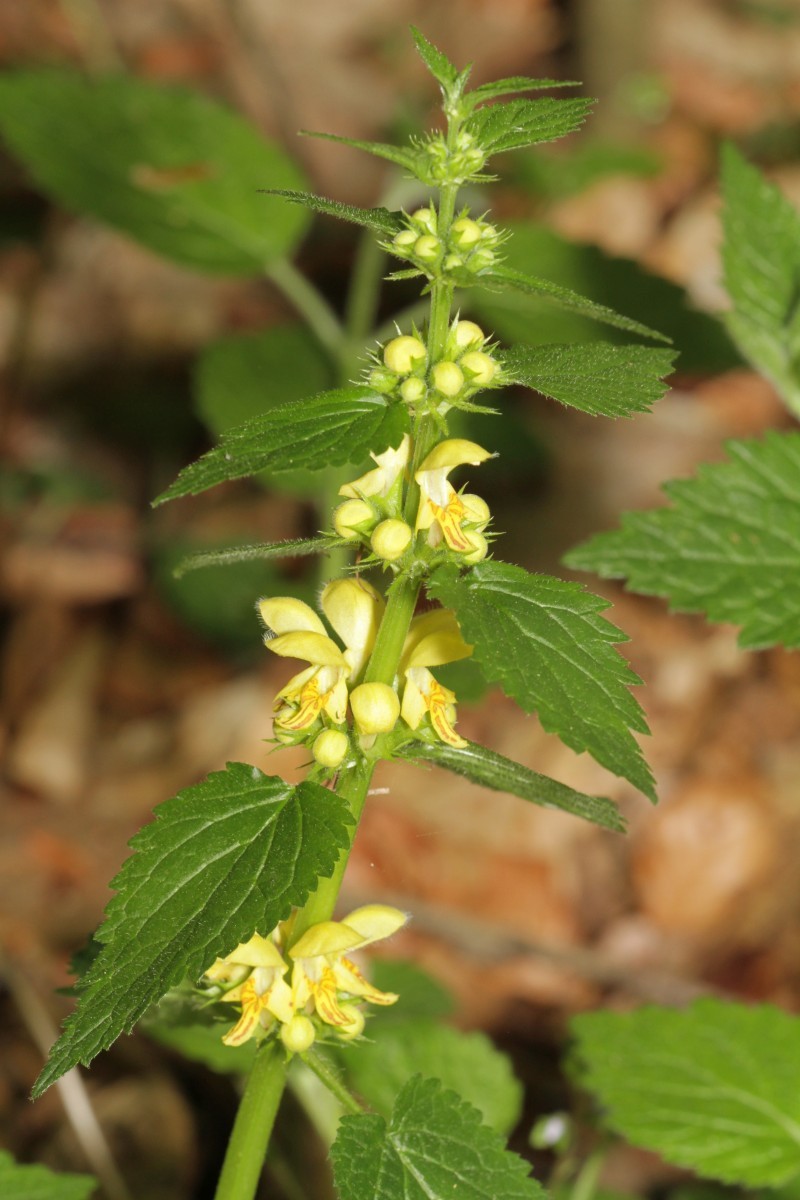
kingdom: Plantae
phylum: Tracheophyta
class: Magnoliopsida
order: Lamiales
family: Lamiaceae
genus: Lamium
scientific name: Lamium galeobdolon
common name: Yellow archangel
